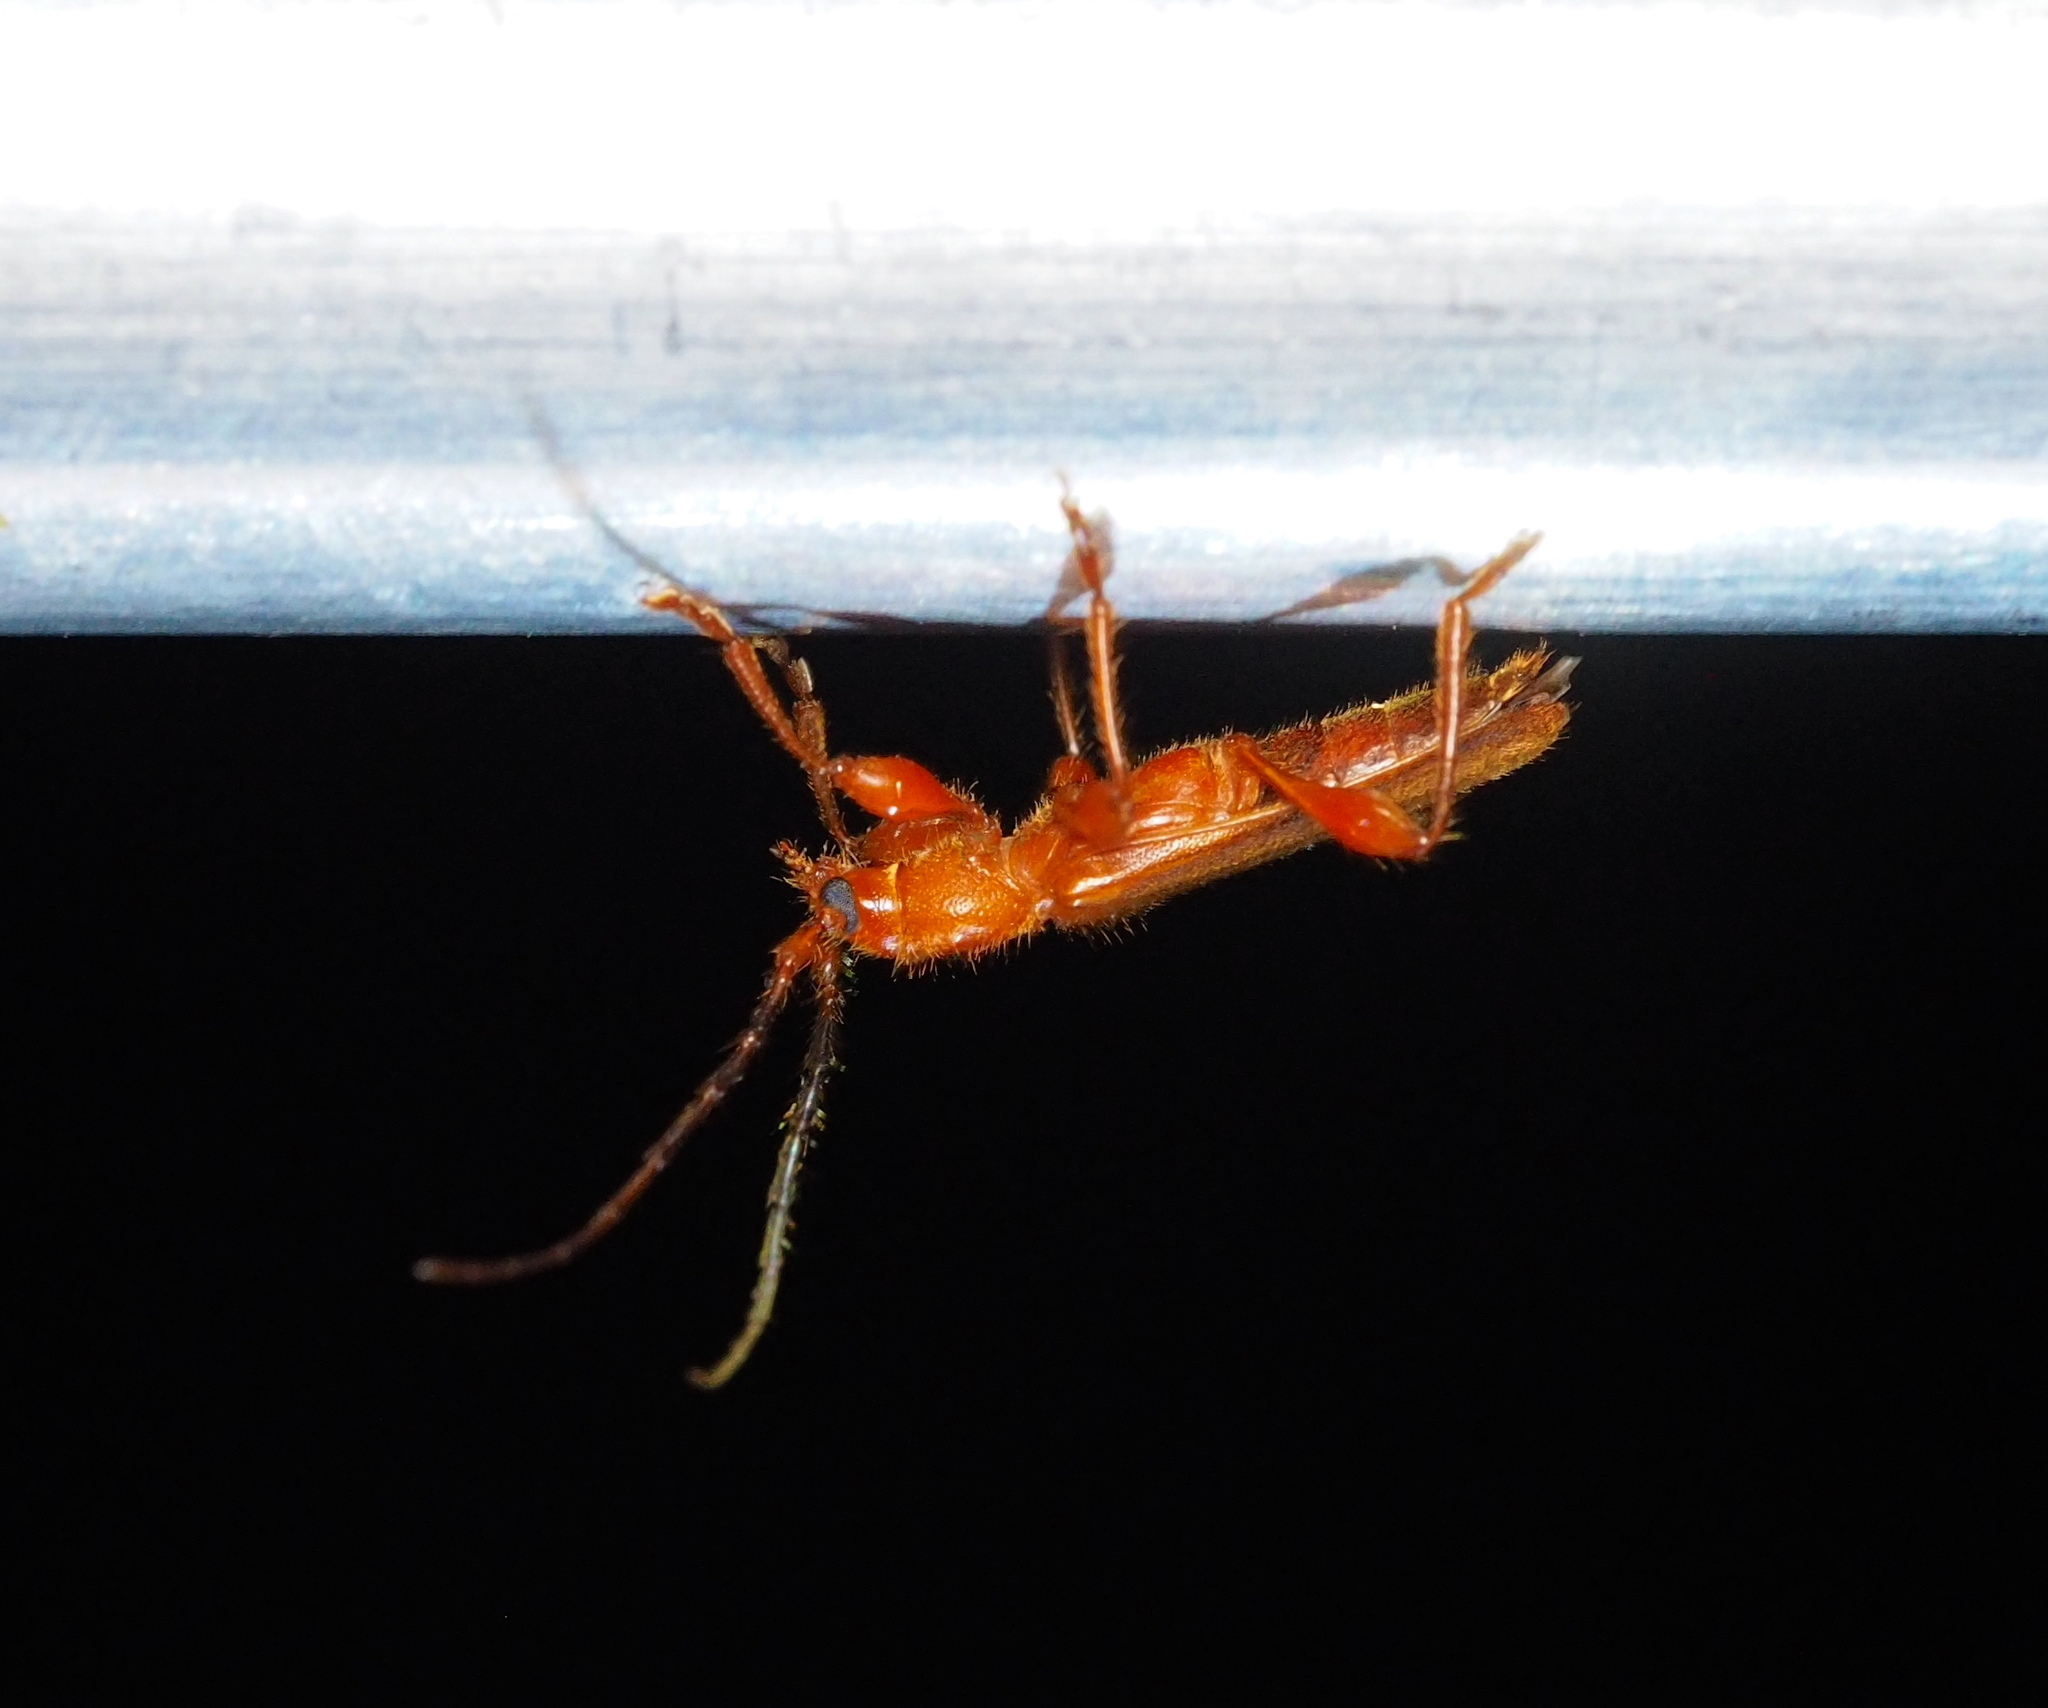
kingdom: Animalia
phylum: Arthropoda
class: Insecta
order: Coleoptera
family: Cerambycidae
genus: Axinopalpis
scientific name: Axinopalpis gracilis
